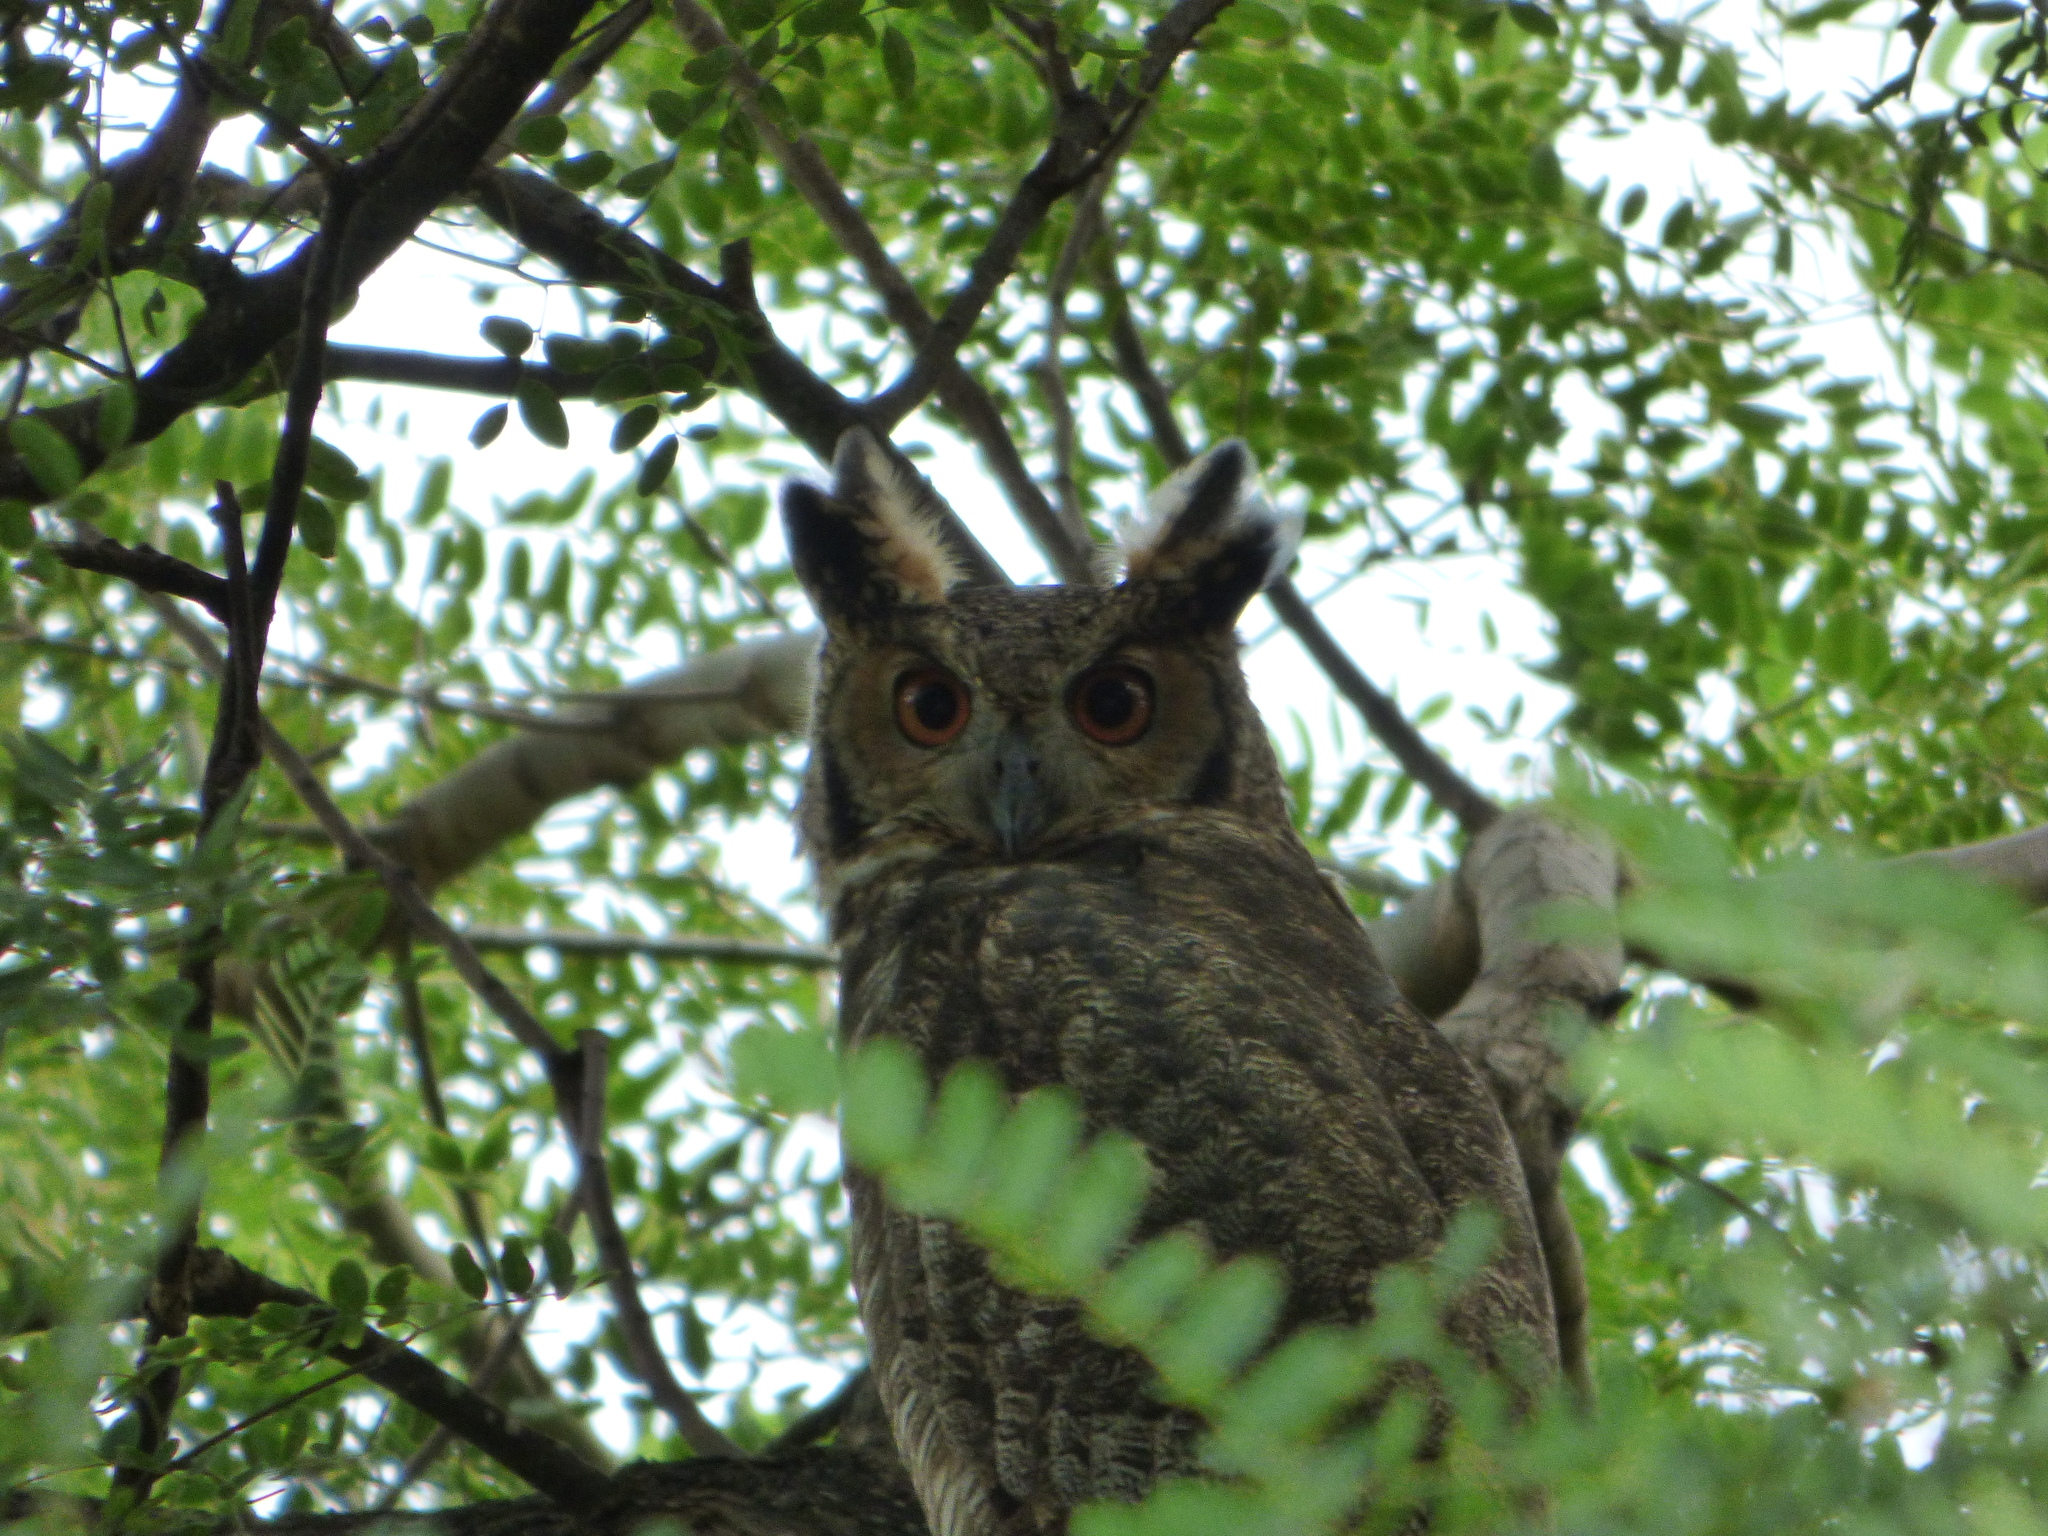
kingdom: Animalia
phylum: Chordata
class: Aves
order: Strigiformes
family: Strigidae
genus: Bubo
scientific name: Bubo virginianus
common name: Great horned owl
